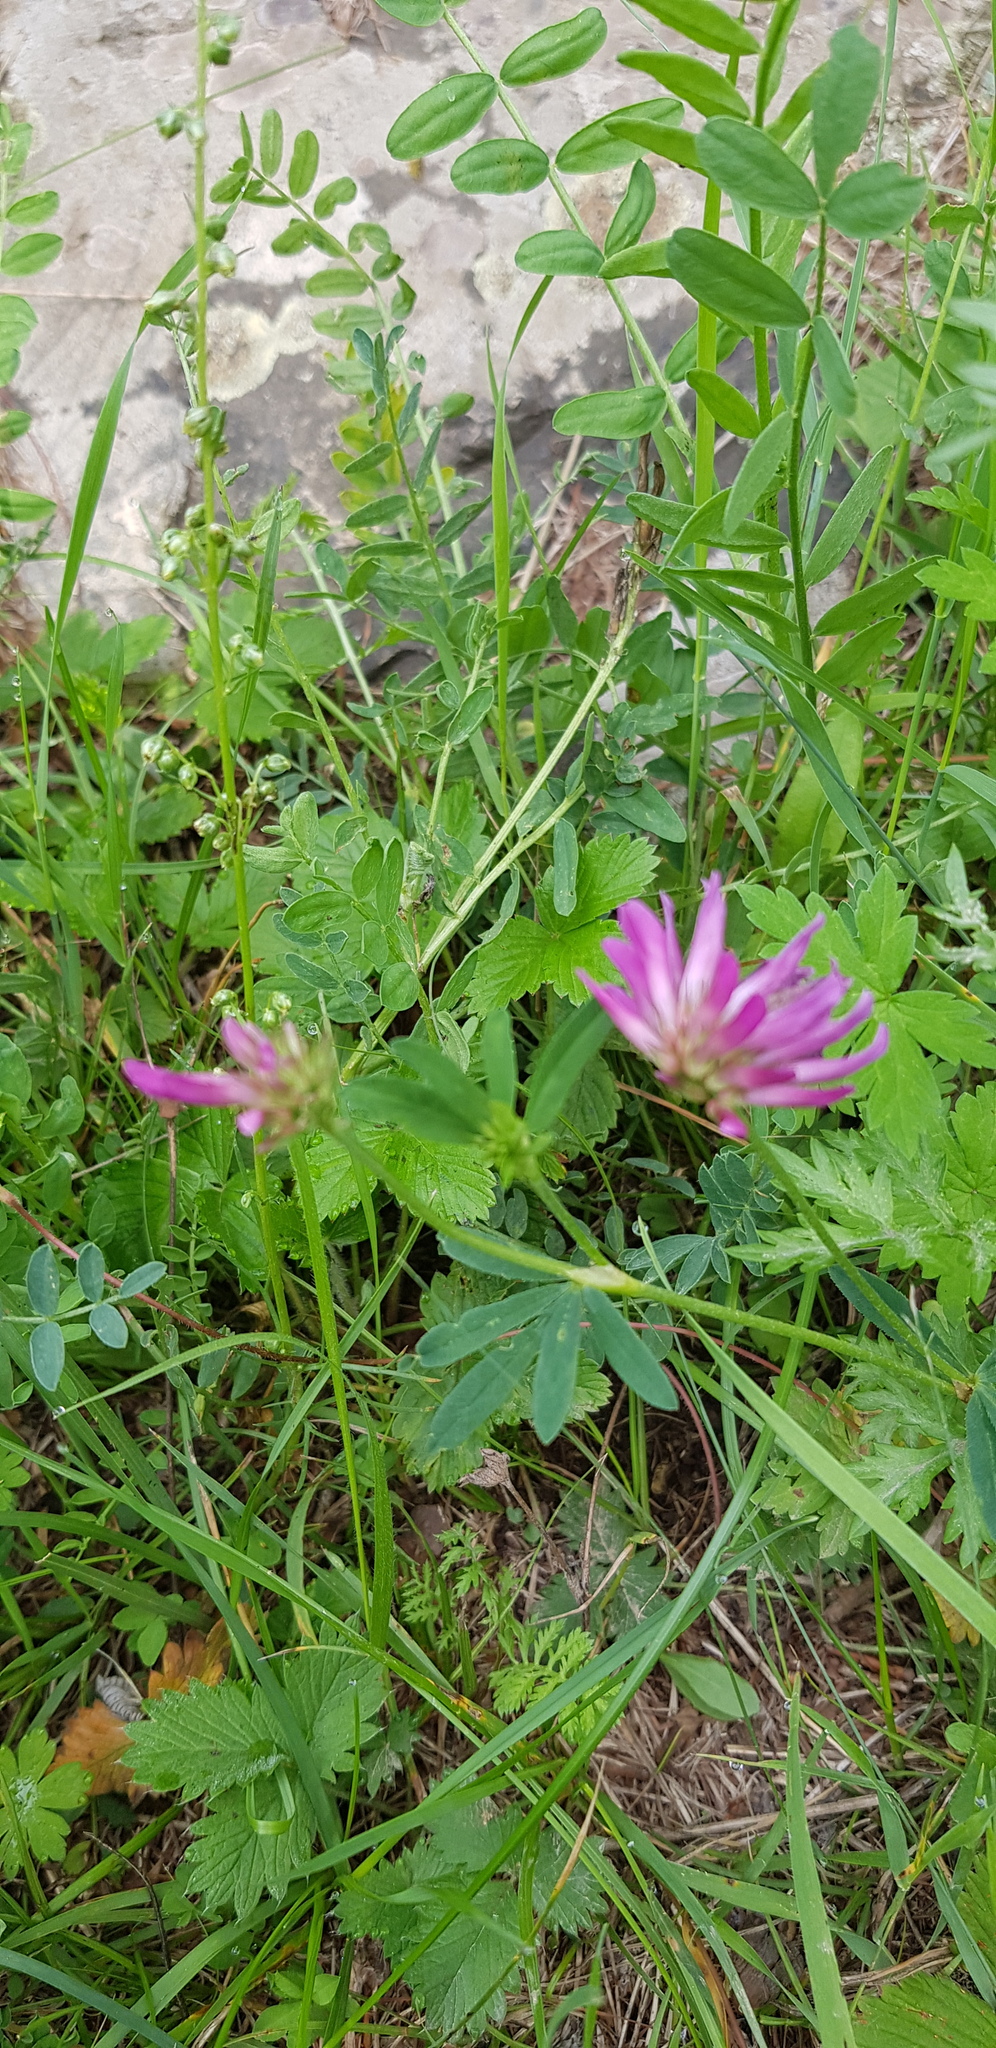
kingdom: Plantae
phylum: Tracheophyta
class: Magnoliopsida
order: Fabales
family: Fabaceae
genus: Trifolium
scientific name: Trifolium lupinaster
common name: Lupine clover
